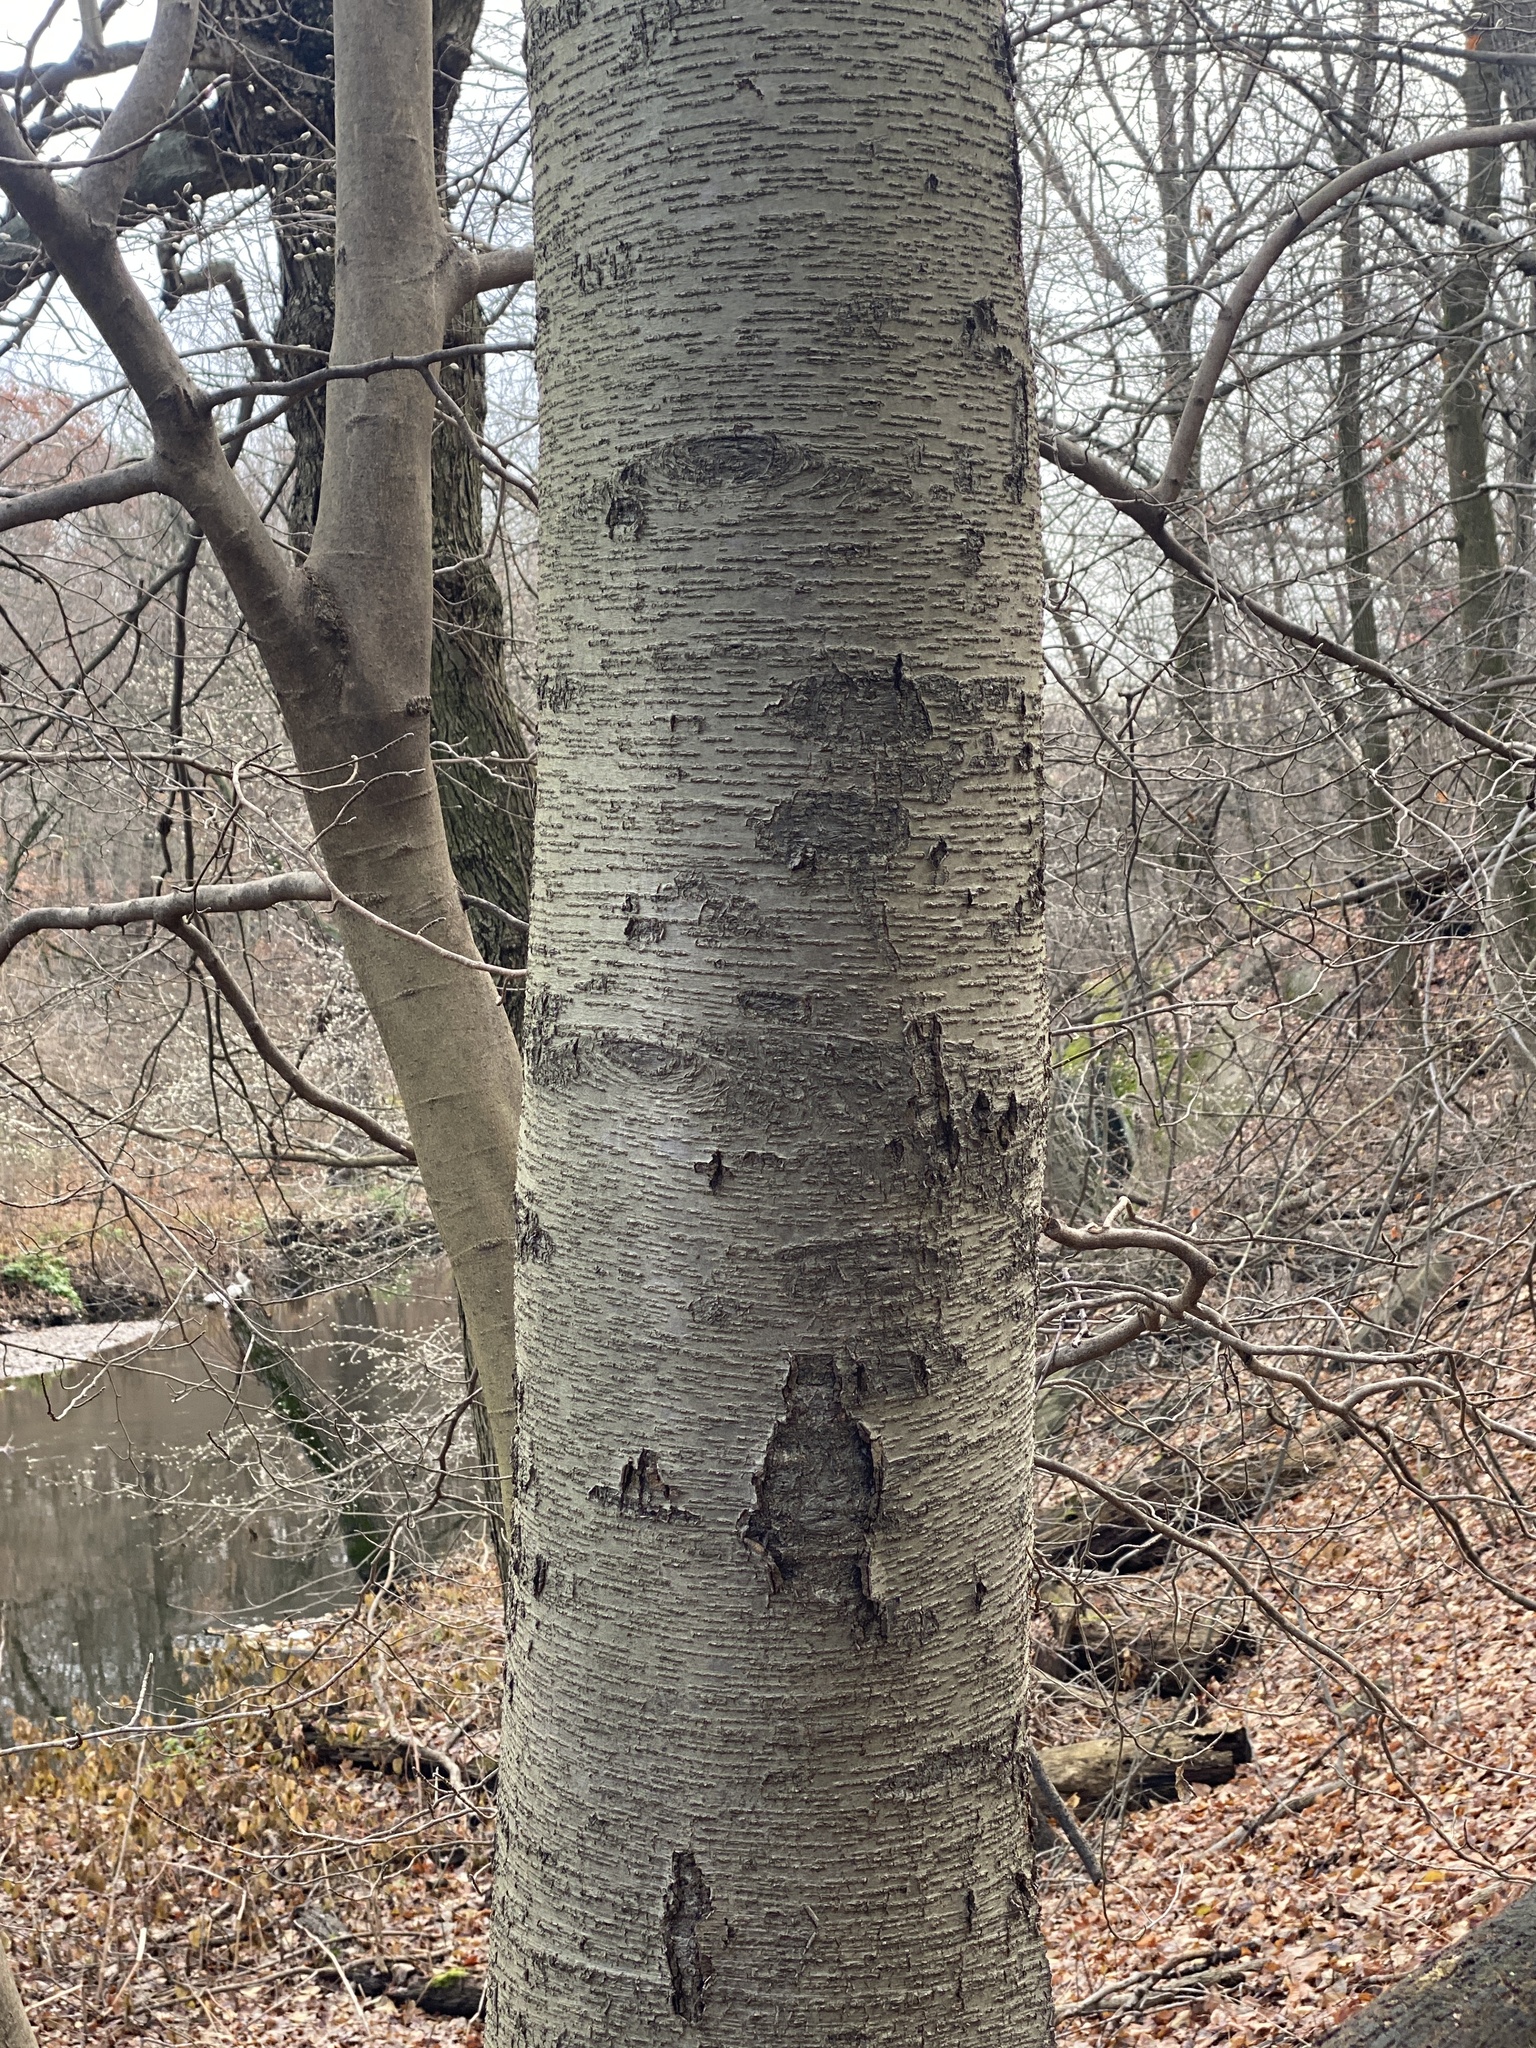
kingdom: Plantae
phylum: Tracheophyta
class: Magnoliopsida
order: Fagales
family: Betulaceae
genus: Betula
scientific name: Betula lenta
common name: Black birch
